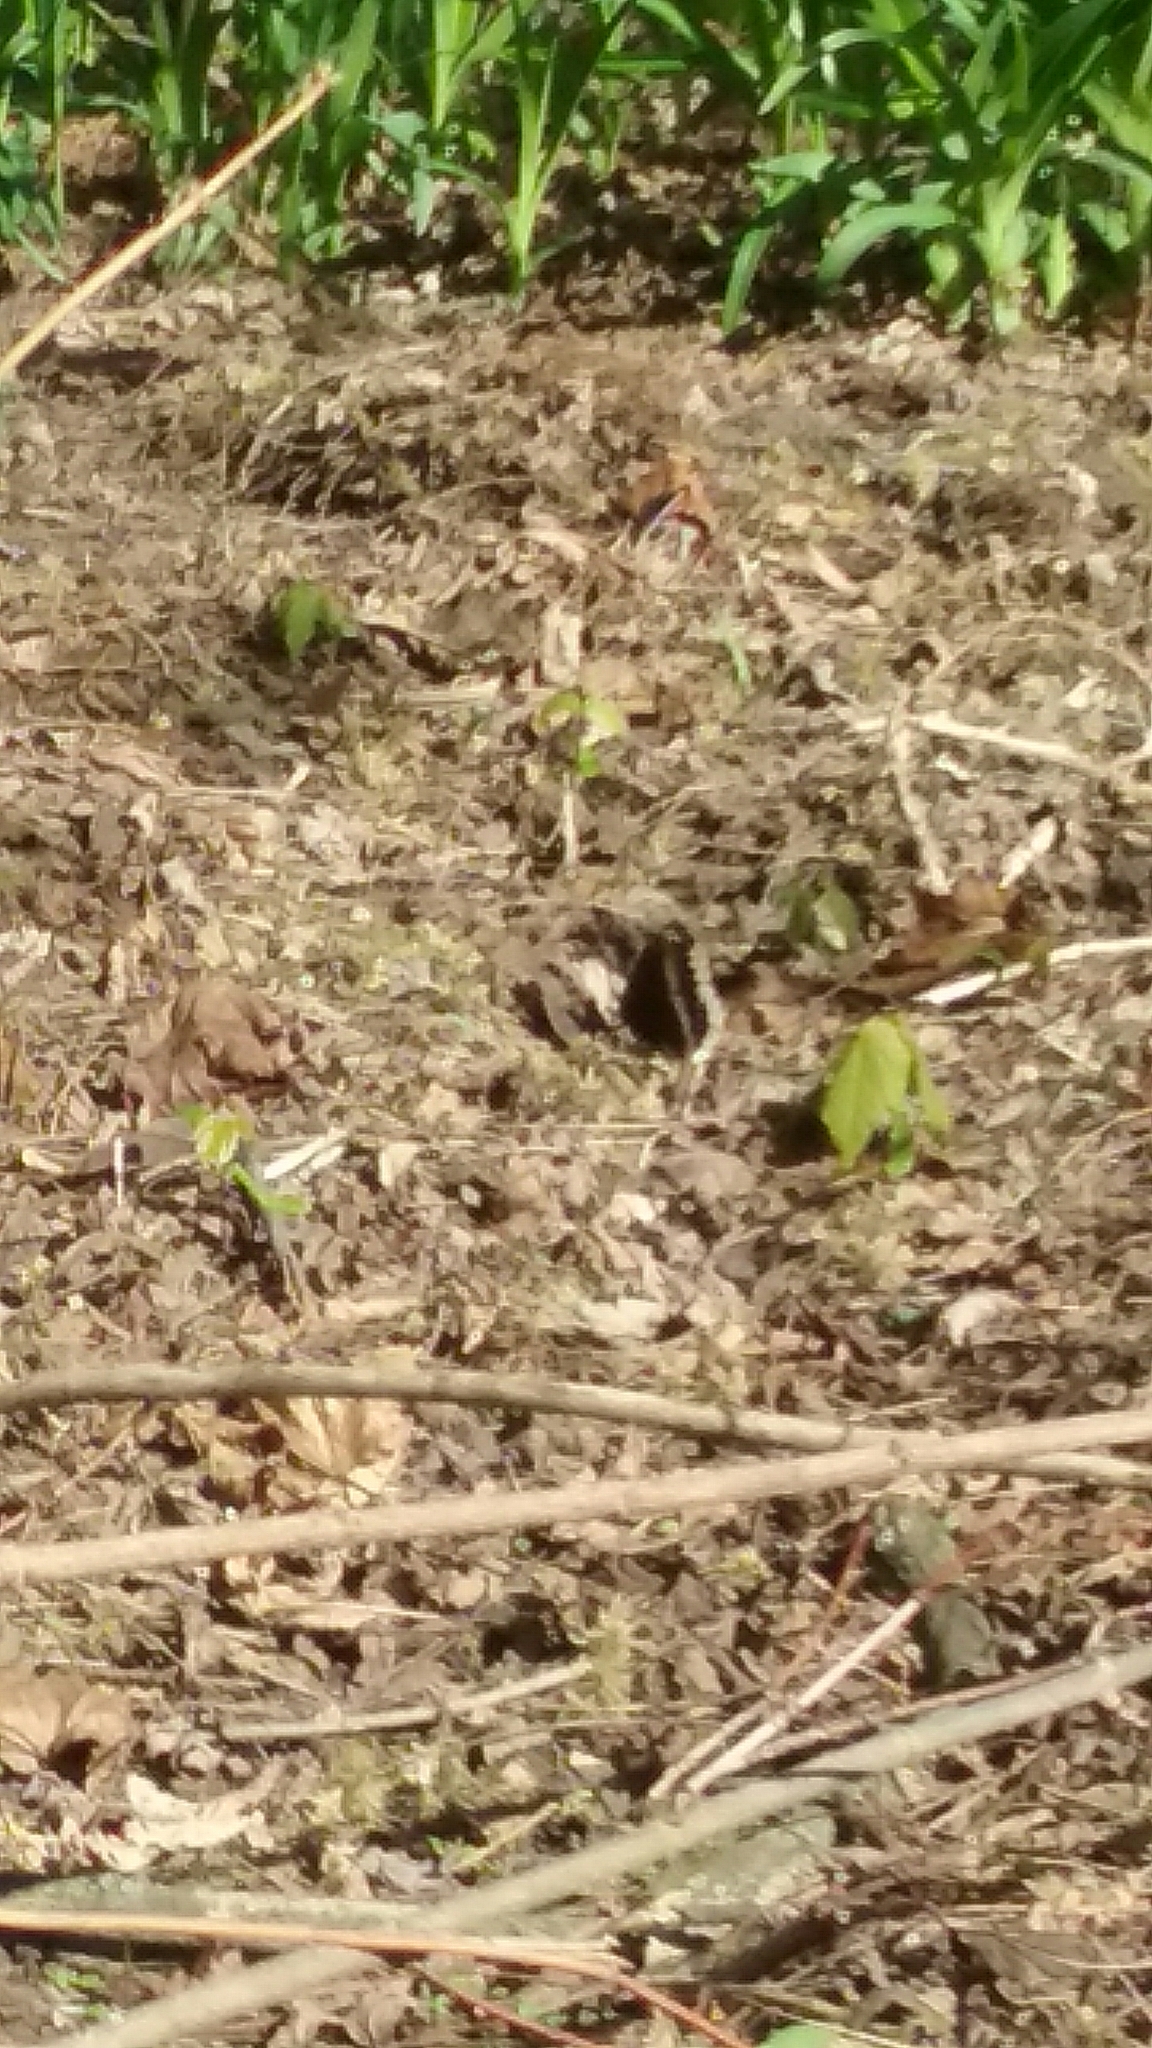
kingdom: Animalia
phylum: Arthropoda
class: Insecta
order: Lepidoptera
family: Nymphalidae
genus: Nymphalis
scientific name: Nymphalis antiopa
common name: Camberwell beauty
